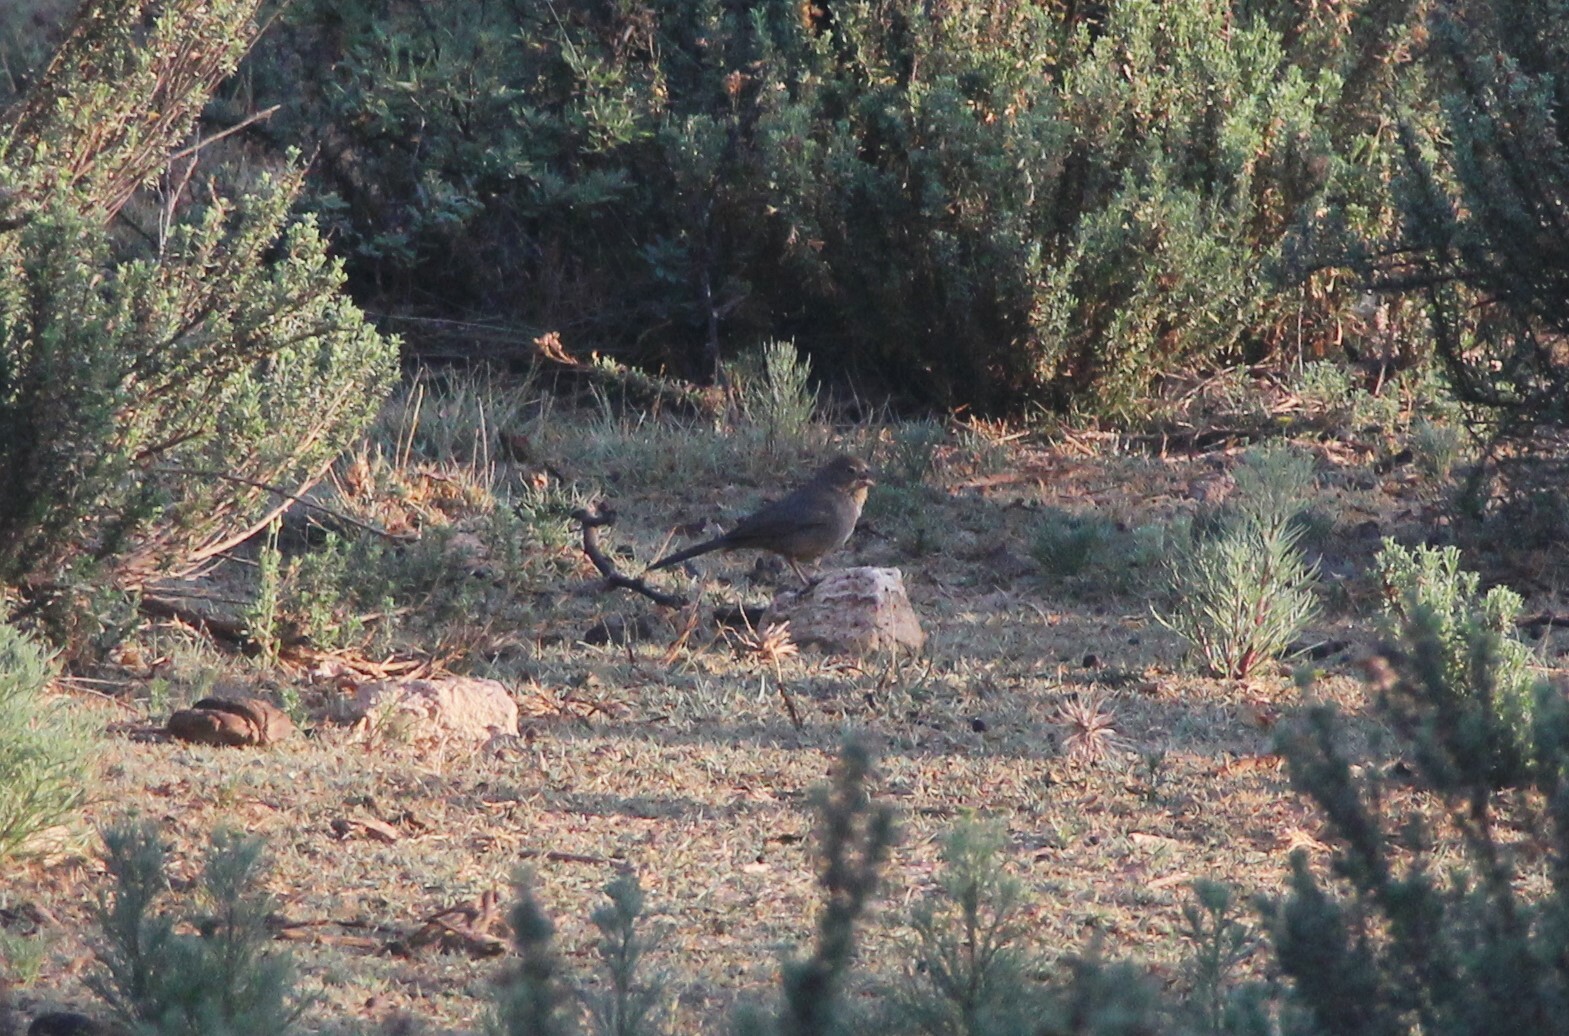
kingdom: Animalia
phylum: Chordata
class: Aves
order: Passeriformes
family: Passerellidae
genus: Melozone
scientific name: Melozone fusca
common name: Canyon towhee
